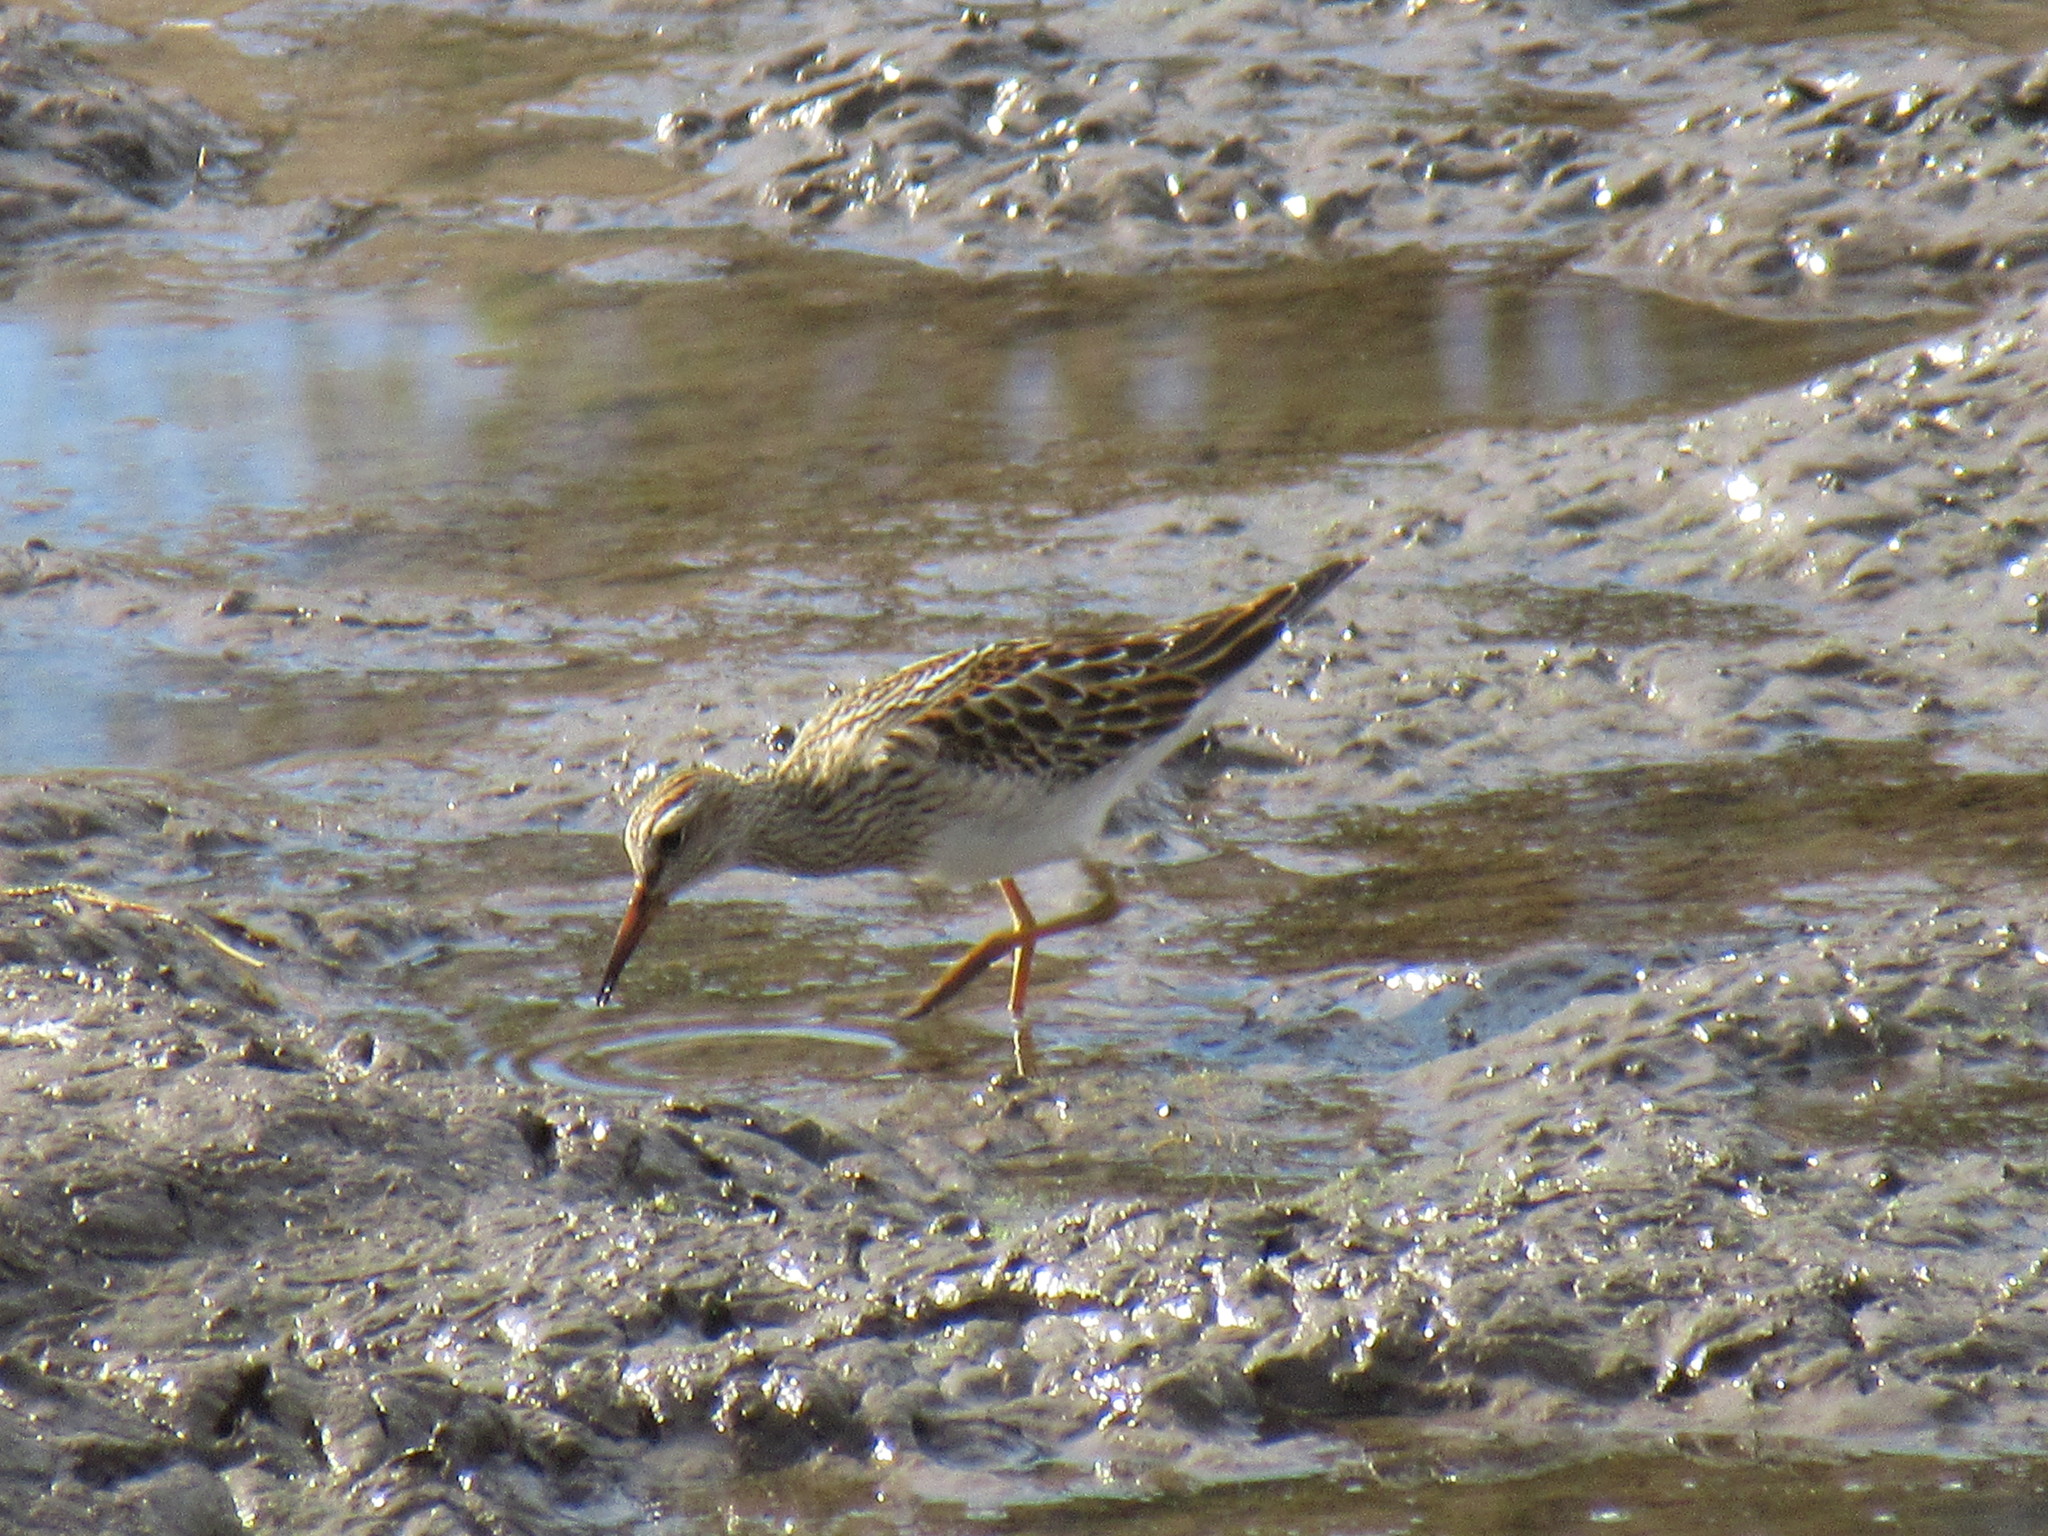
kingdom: Animalia
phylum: Chordata
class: Aves
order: Charadriiformes
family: Scolopacidae
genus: Calidris
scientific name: Calidris melanotos
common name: Pectoral sandpiper
